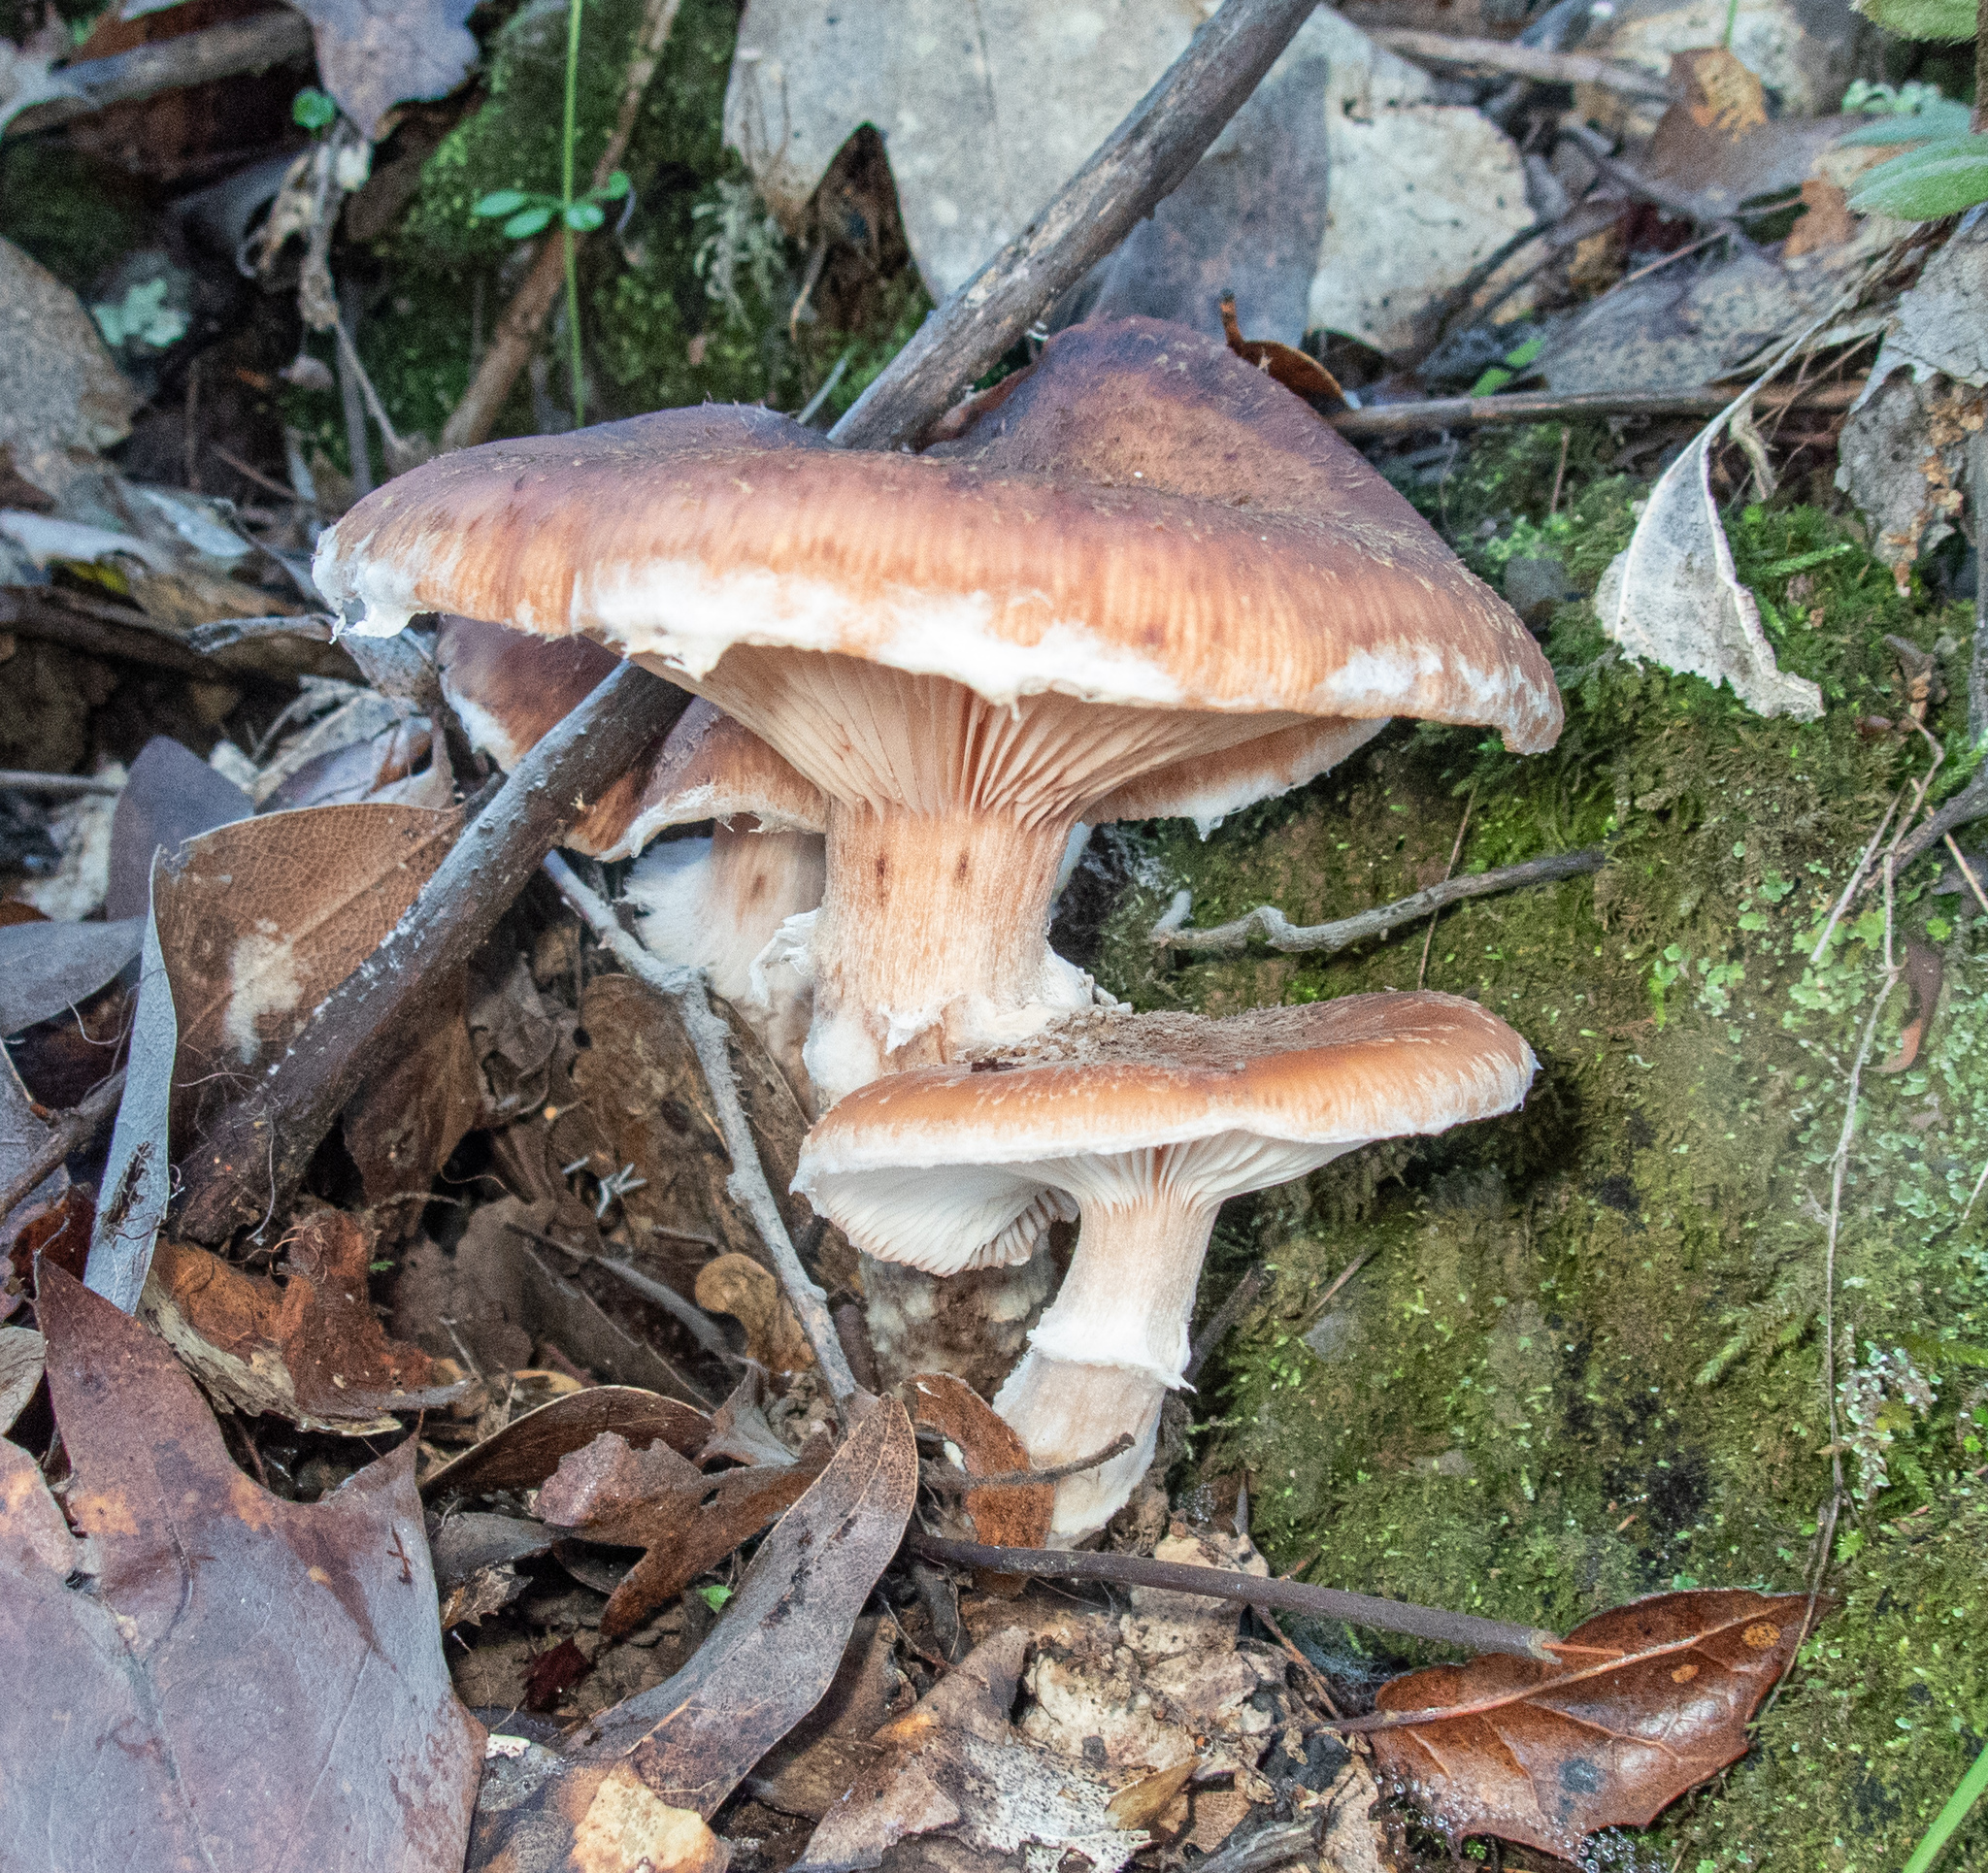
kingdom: Fungi
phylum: Basidiomycota
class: Agaricomycetes
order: Agaricales
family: Physalacriaceae
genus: Armillaria
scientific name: Armillaria sinapina
